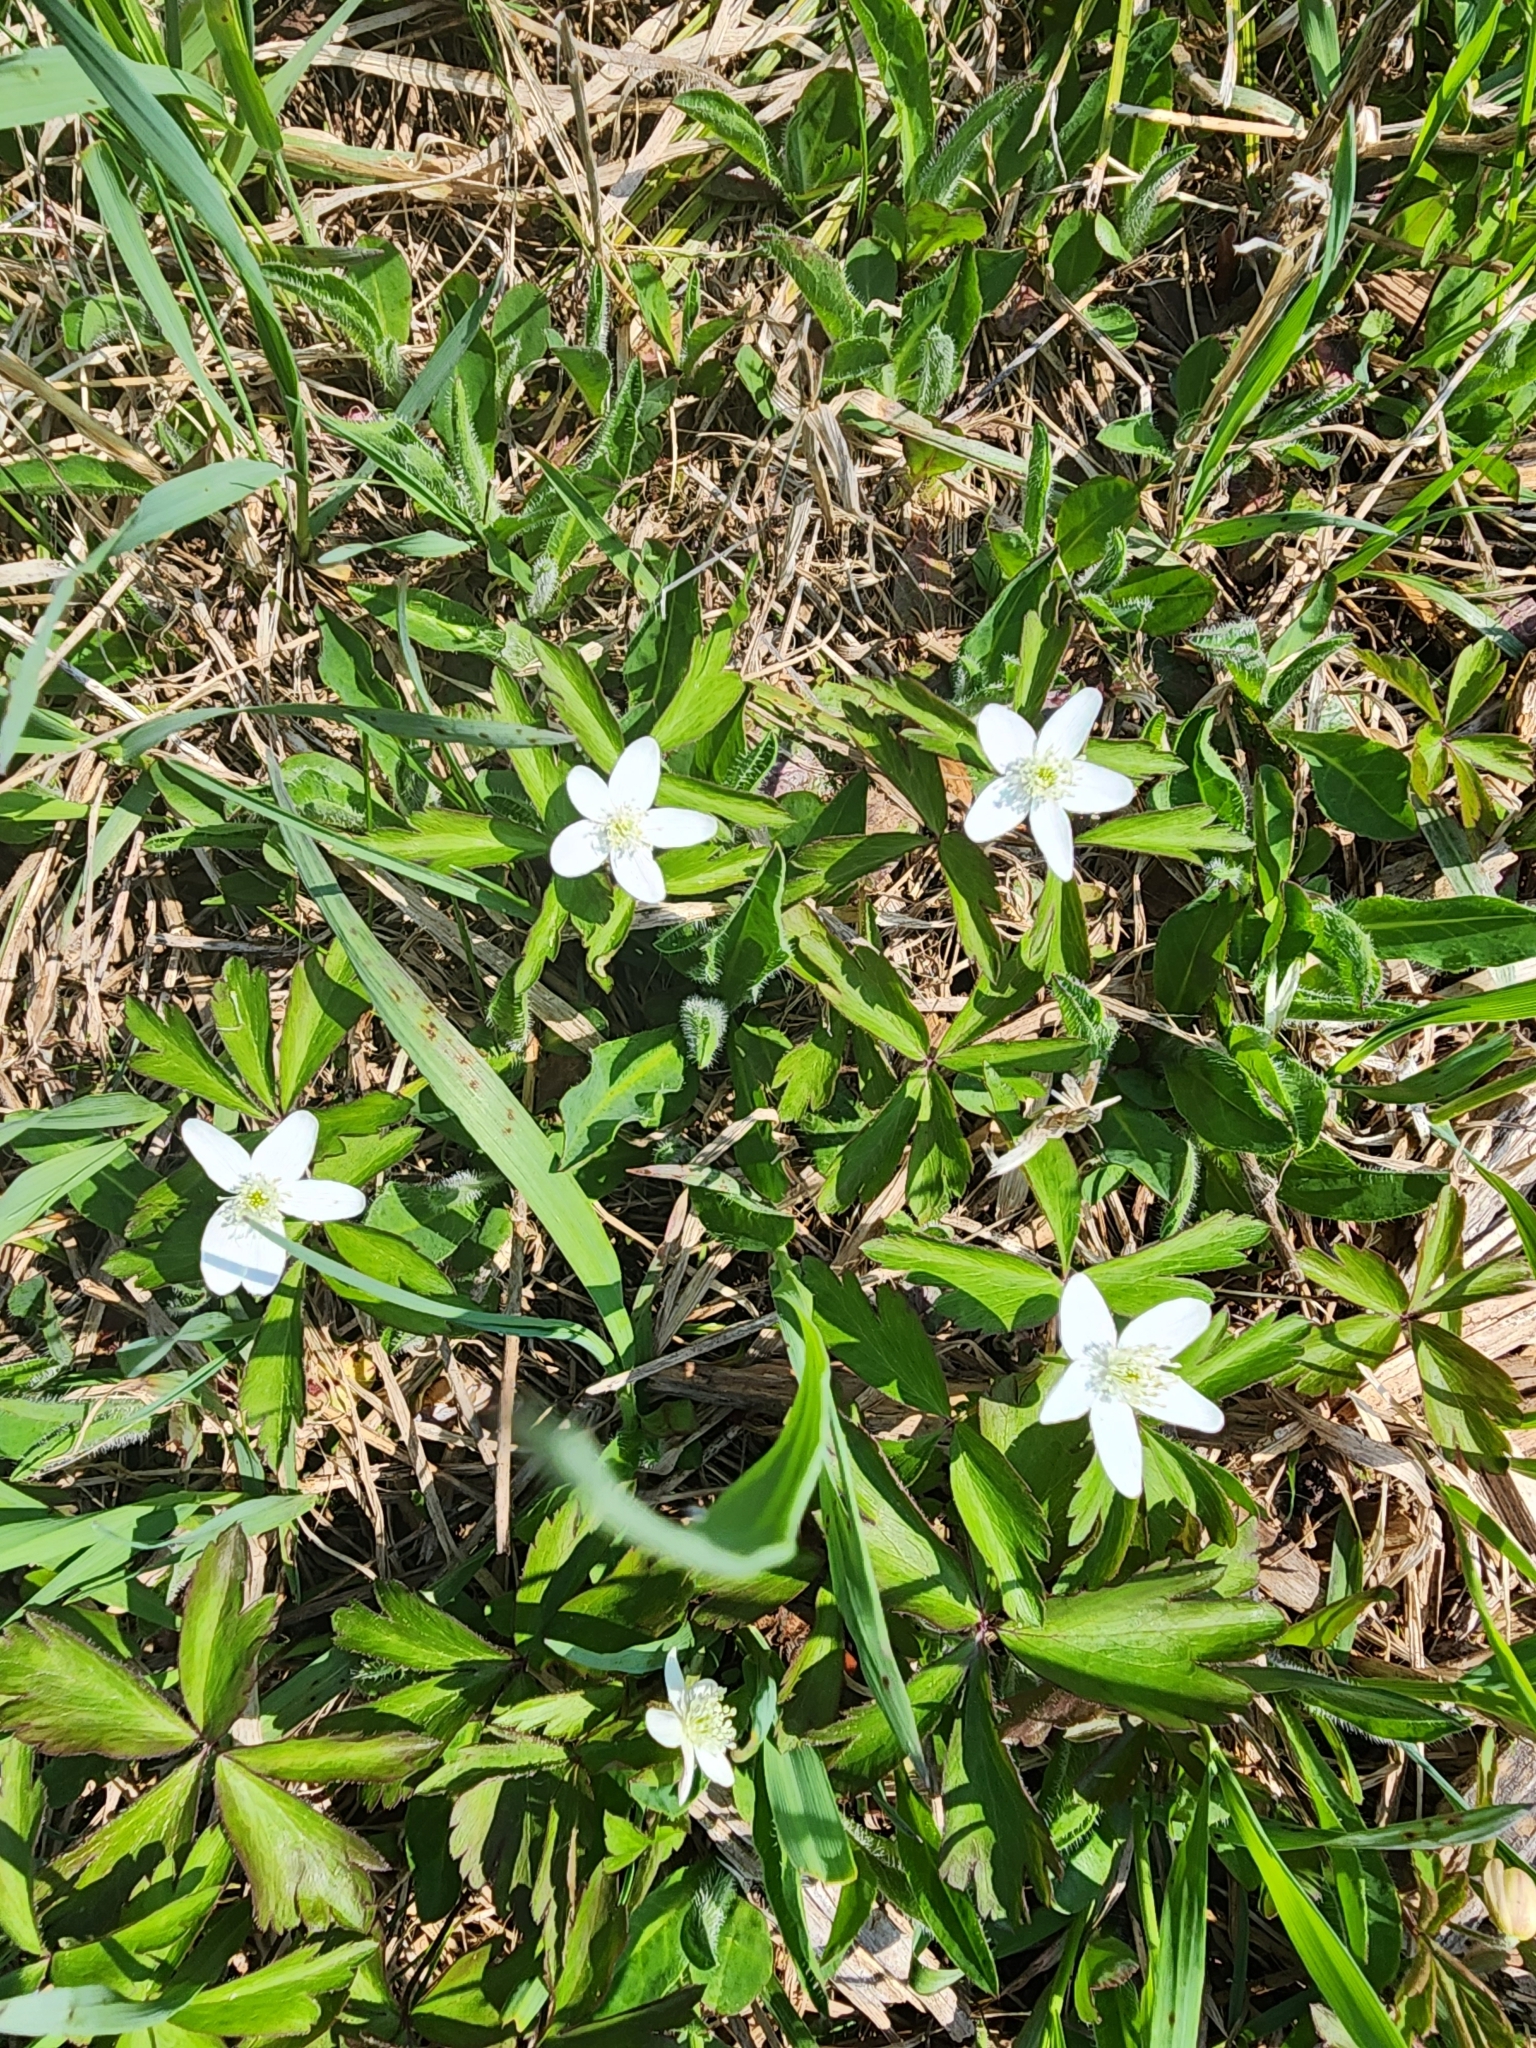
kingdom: Plantae
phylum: Tracheophyta
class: Magnoliopsida
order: Ranunculales
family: Ranunculaceae
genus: Anemone
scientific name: Anemone quinquefolia
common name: Wood anemone
